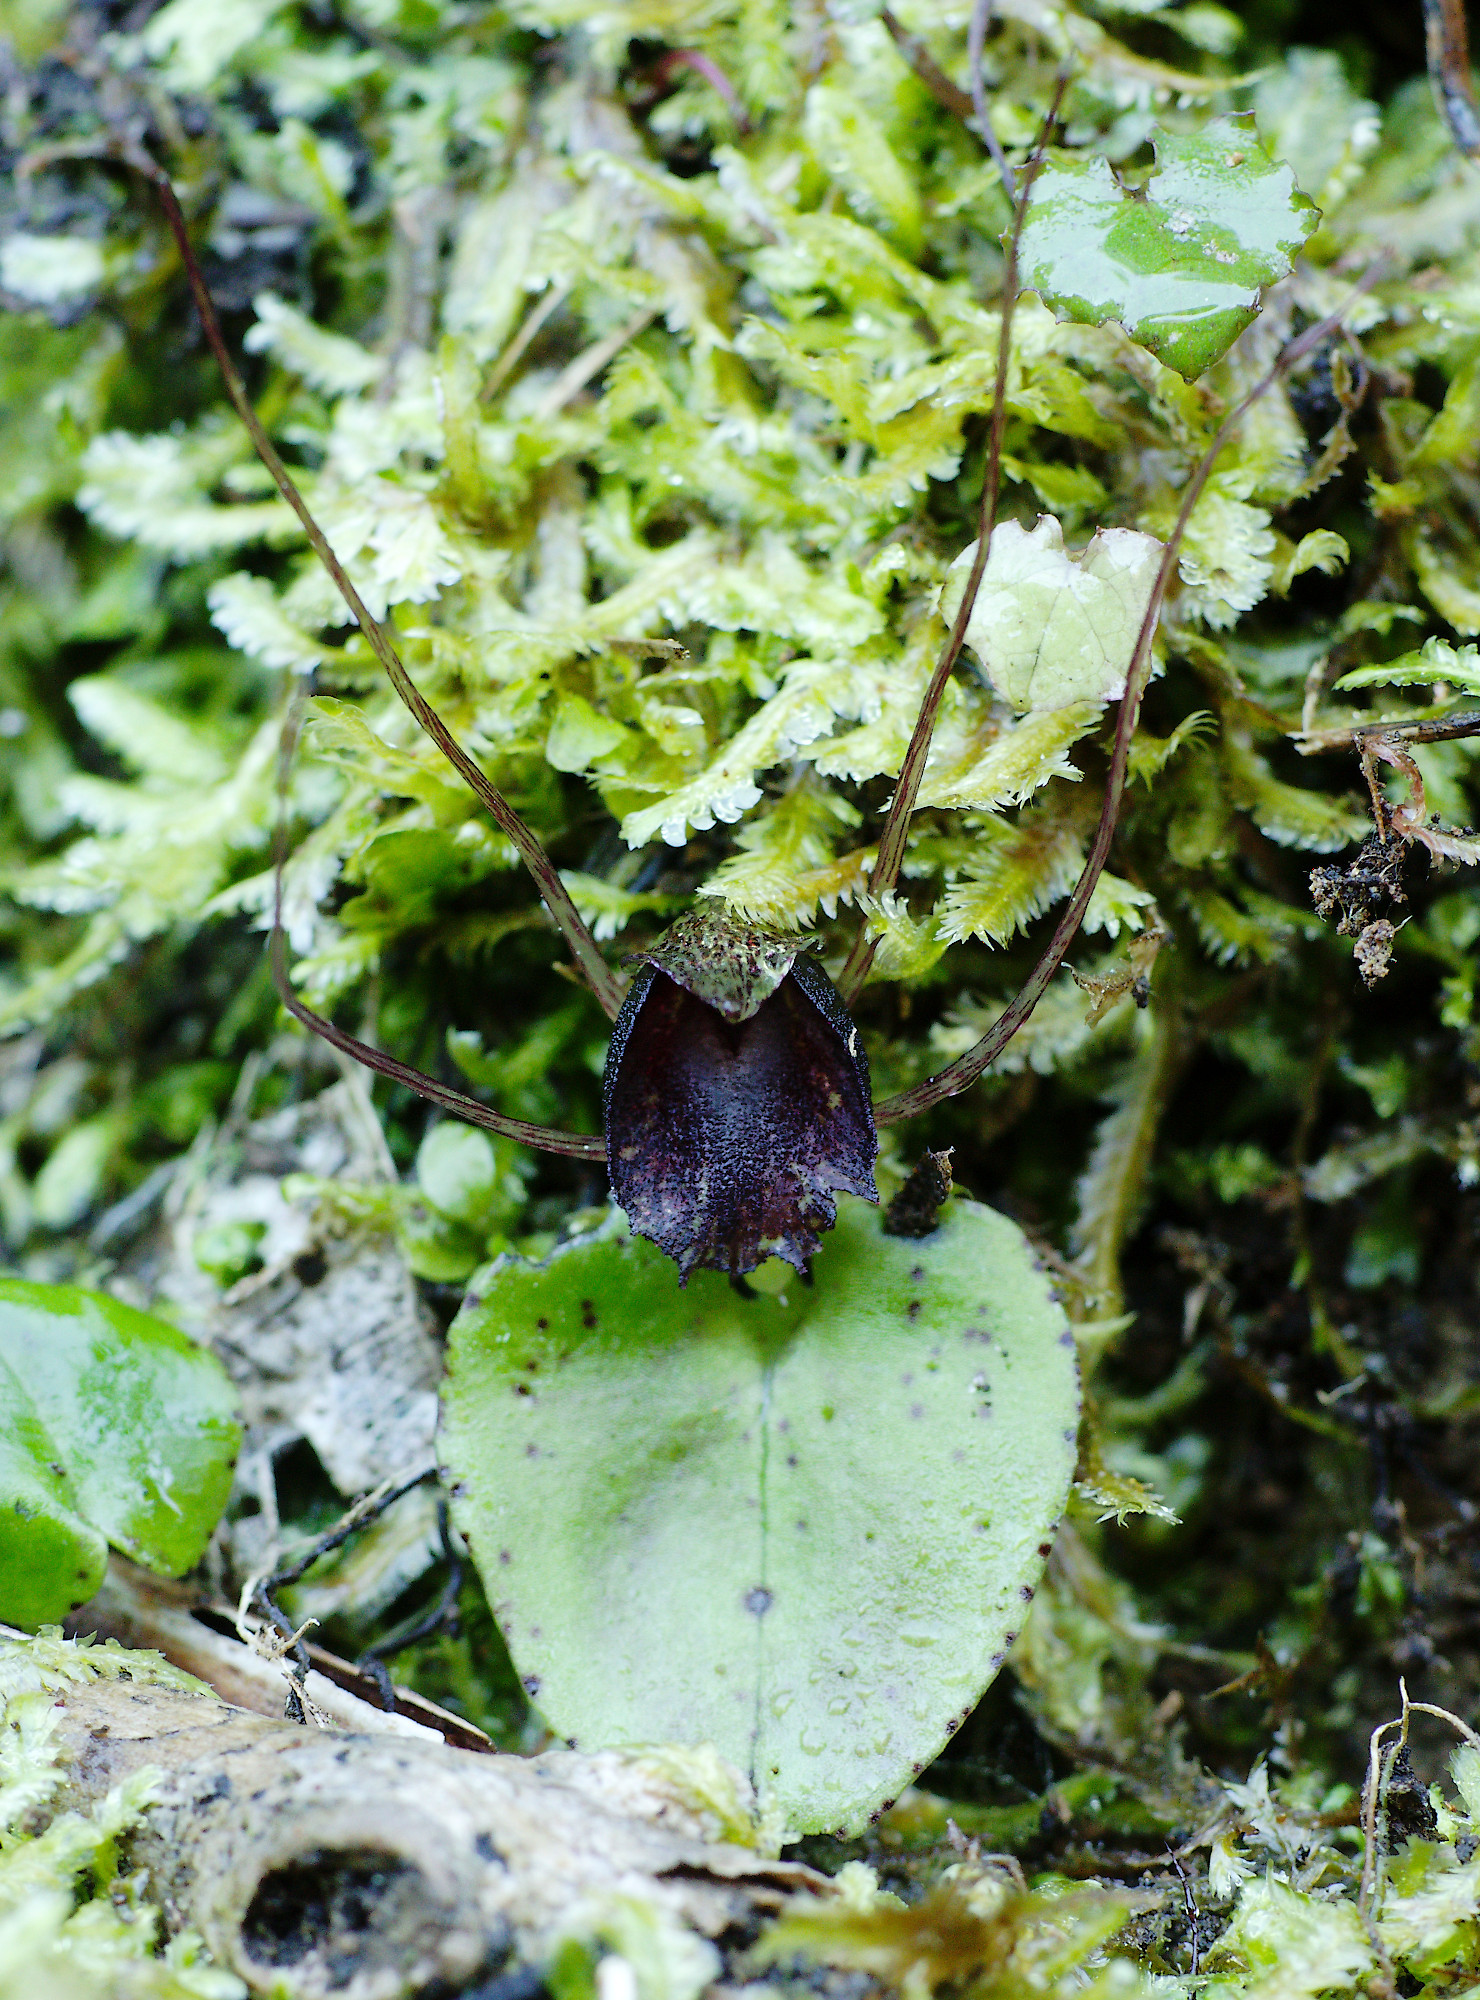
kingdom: Plantae
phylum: Tracheophyta
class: Liliopsida
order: Asparagales
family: Orchidaceae
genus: Corybas
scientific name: Corybas iridescens
